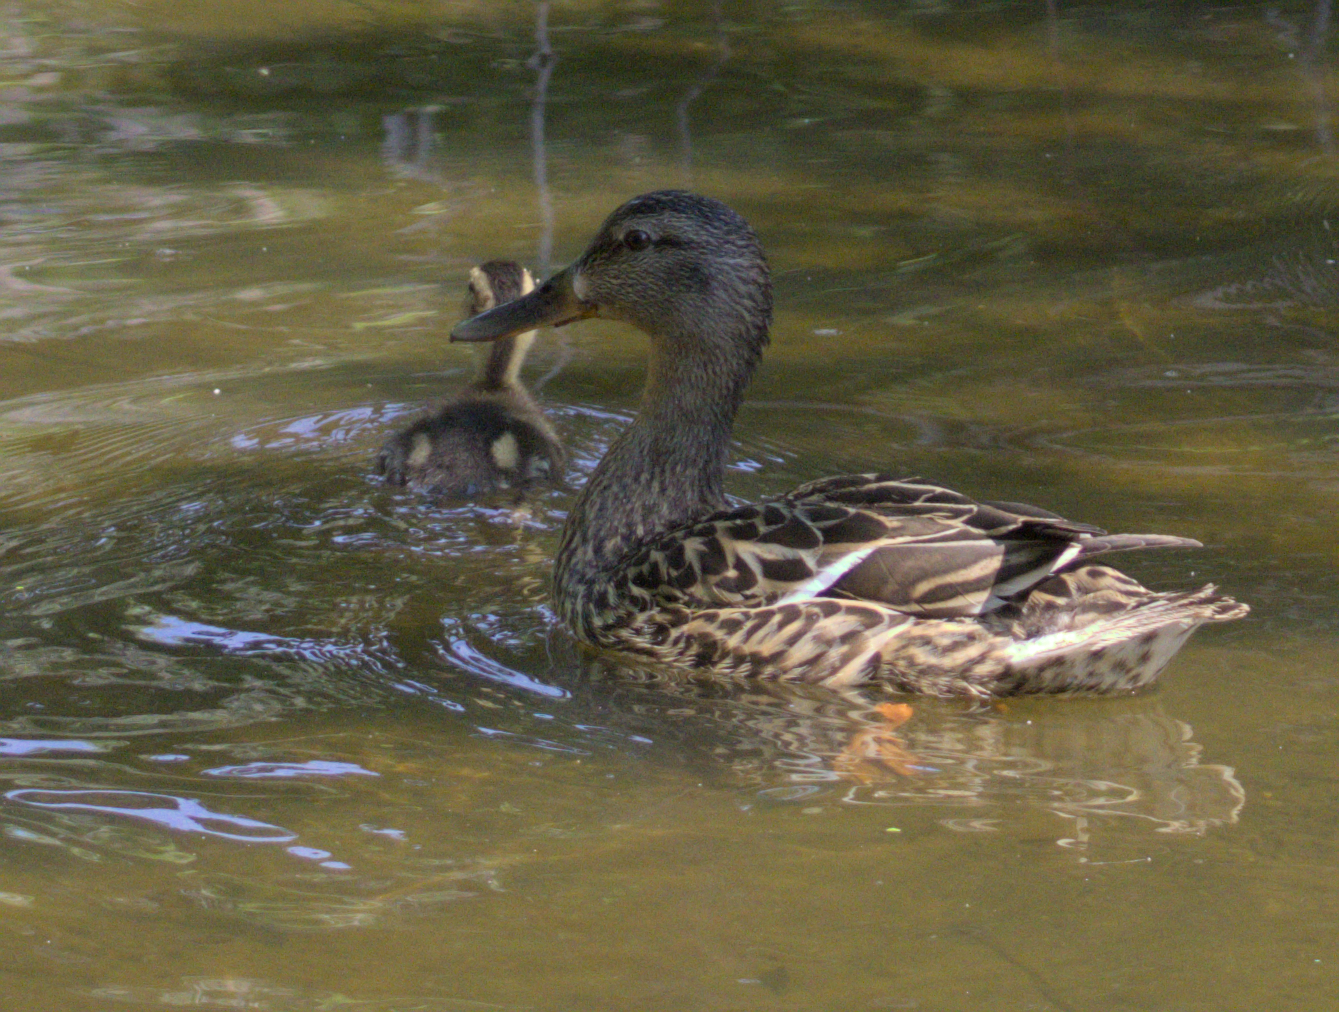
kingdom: Animalia
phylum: Chordata
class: Aves
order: Anseriformes
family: Anatidae
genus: Anas
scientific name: Anas platyrhynchos
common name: Mallard
